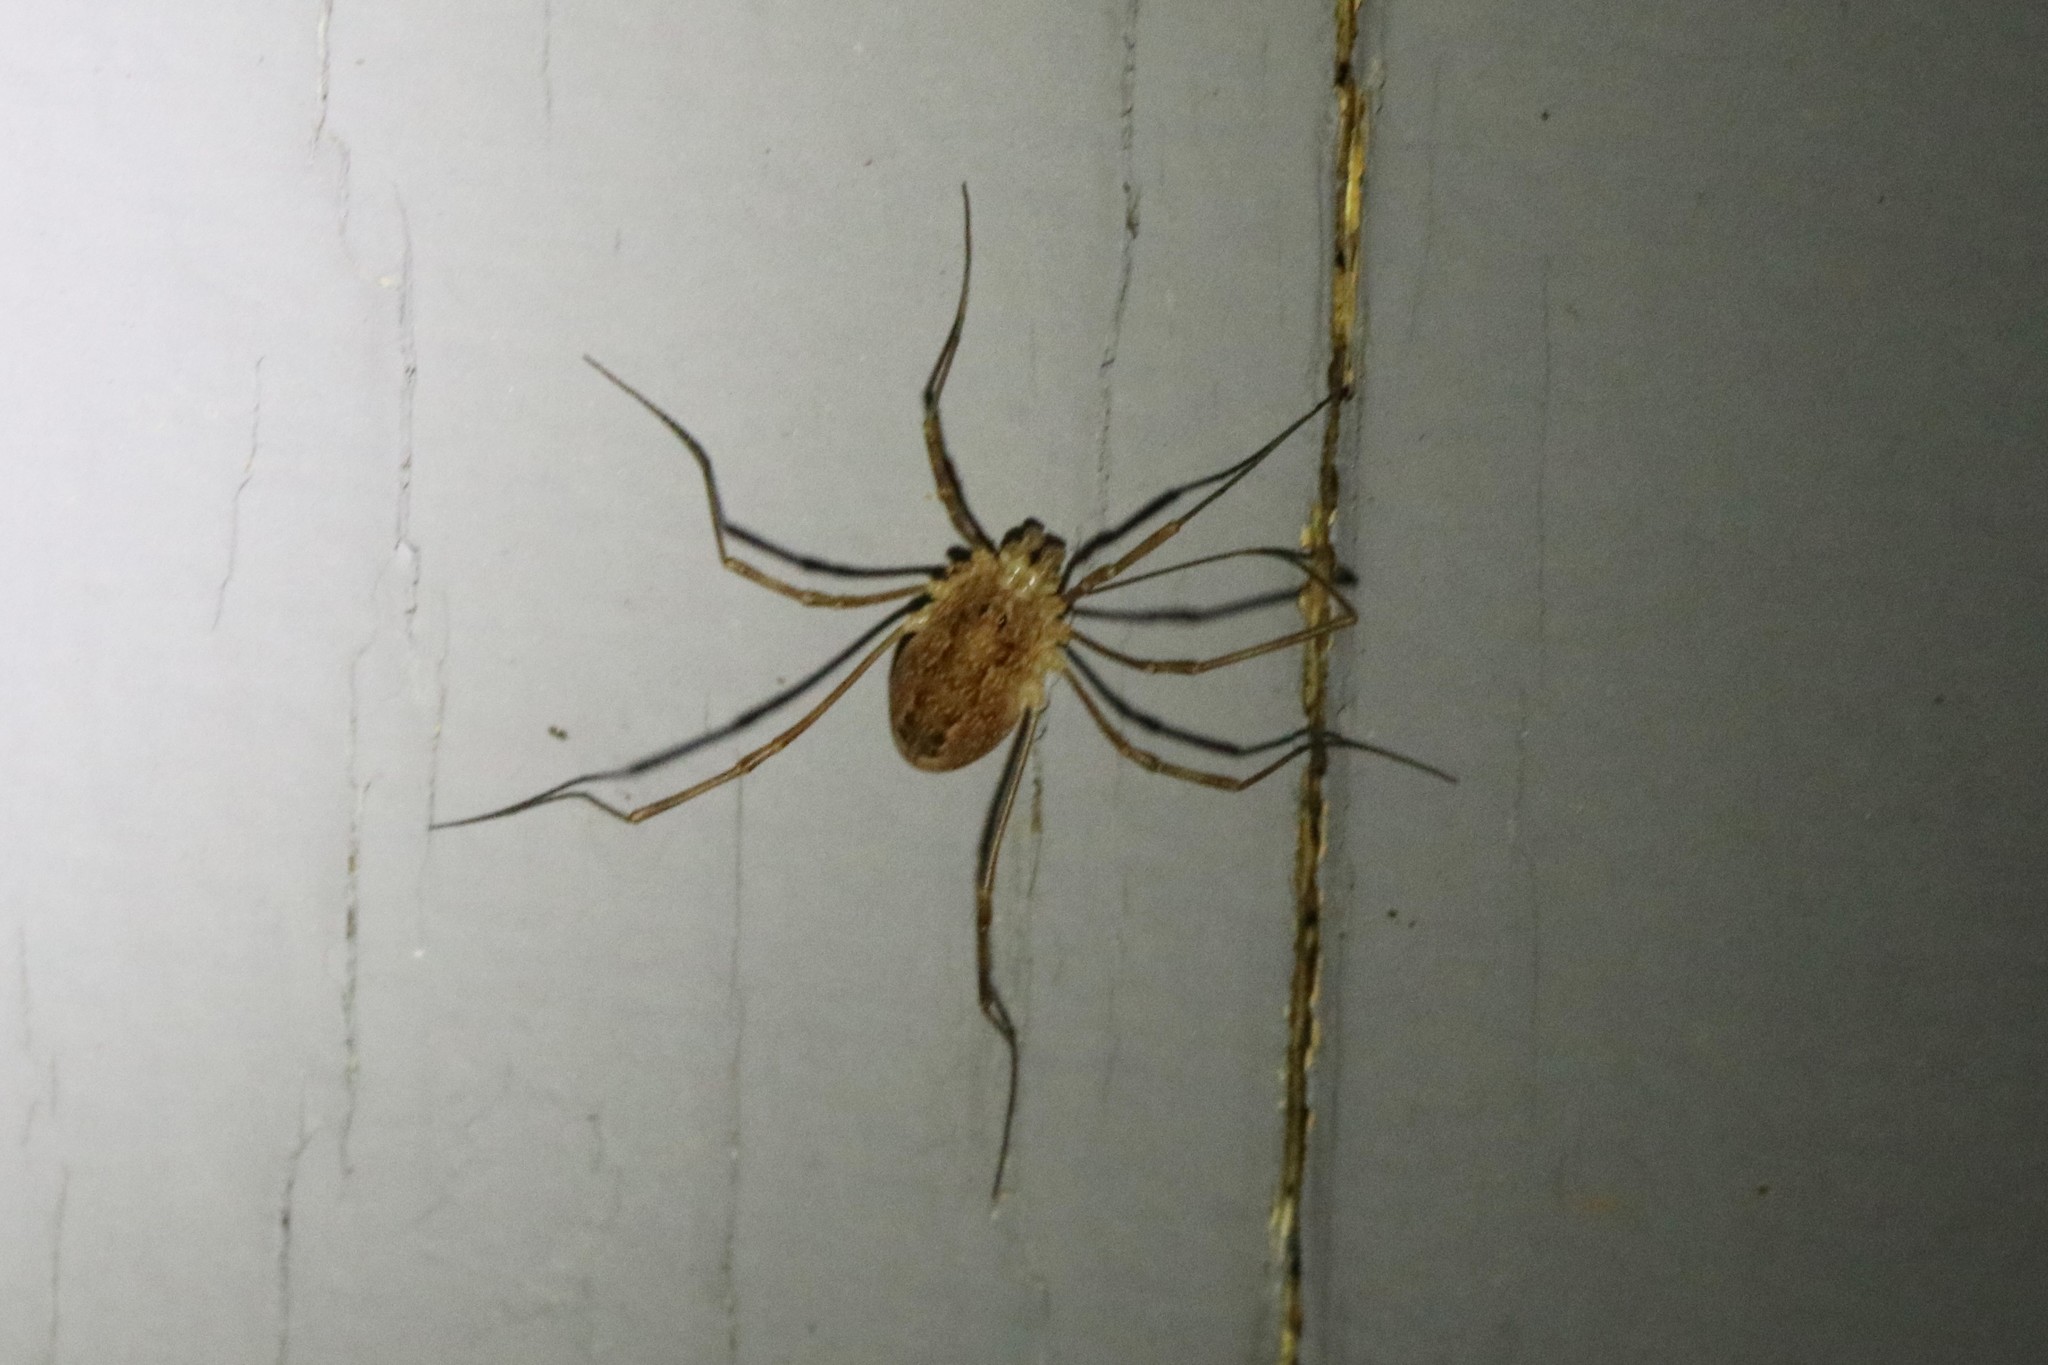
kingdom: Animalia
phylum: Arthropoda
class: Arachnida
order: Opiliones
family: Phalangiidae
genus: Rilaena
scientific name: Rilaena triangularis
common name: Spring harvestman
